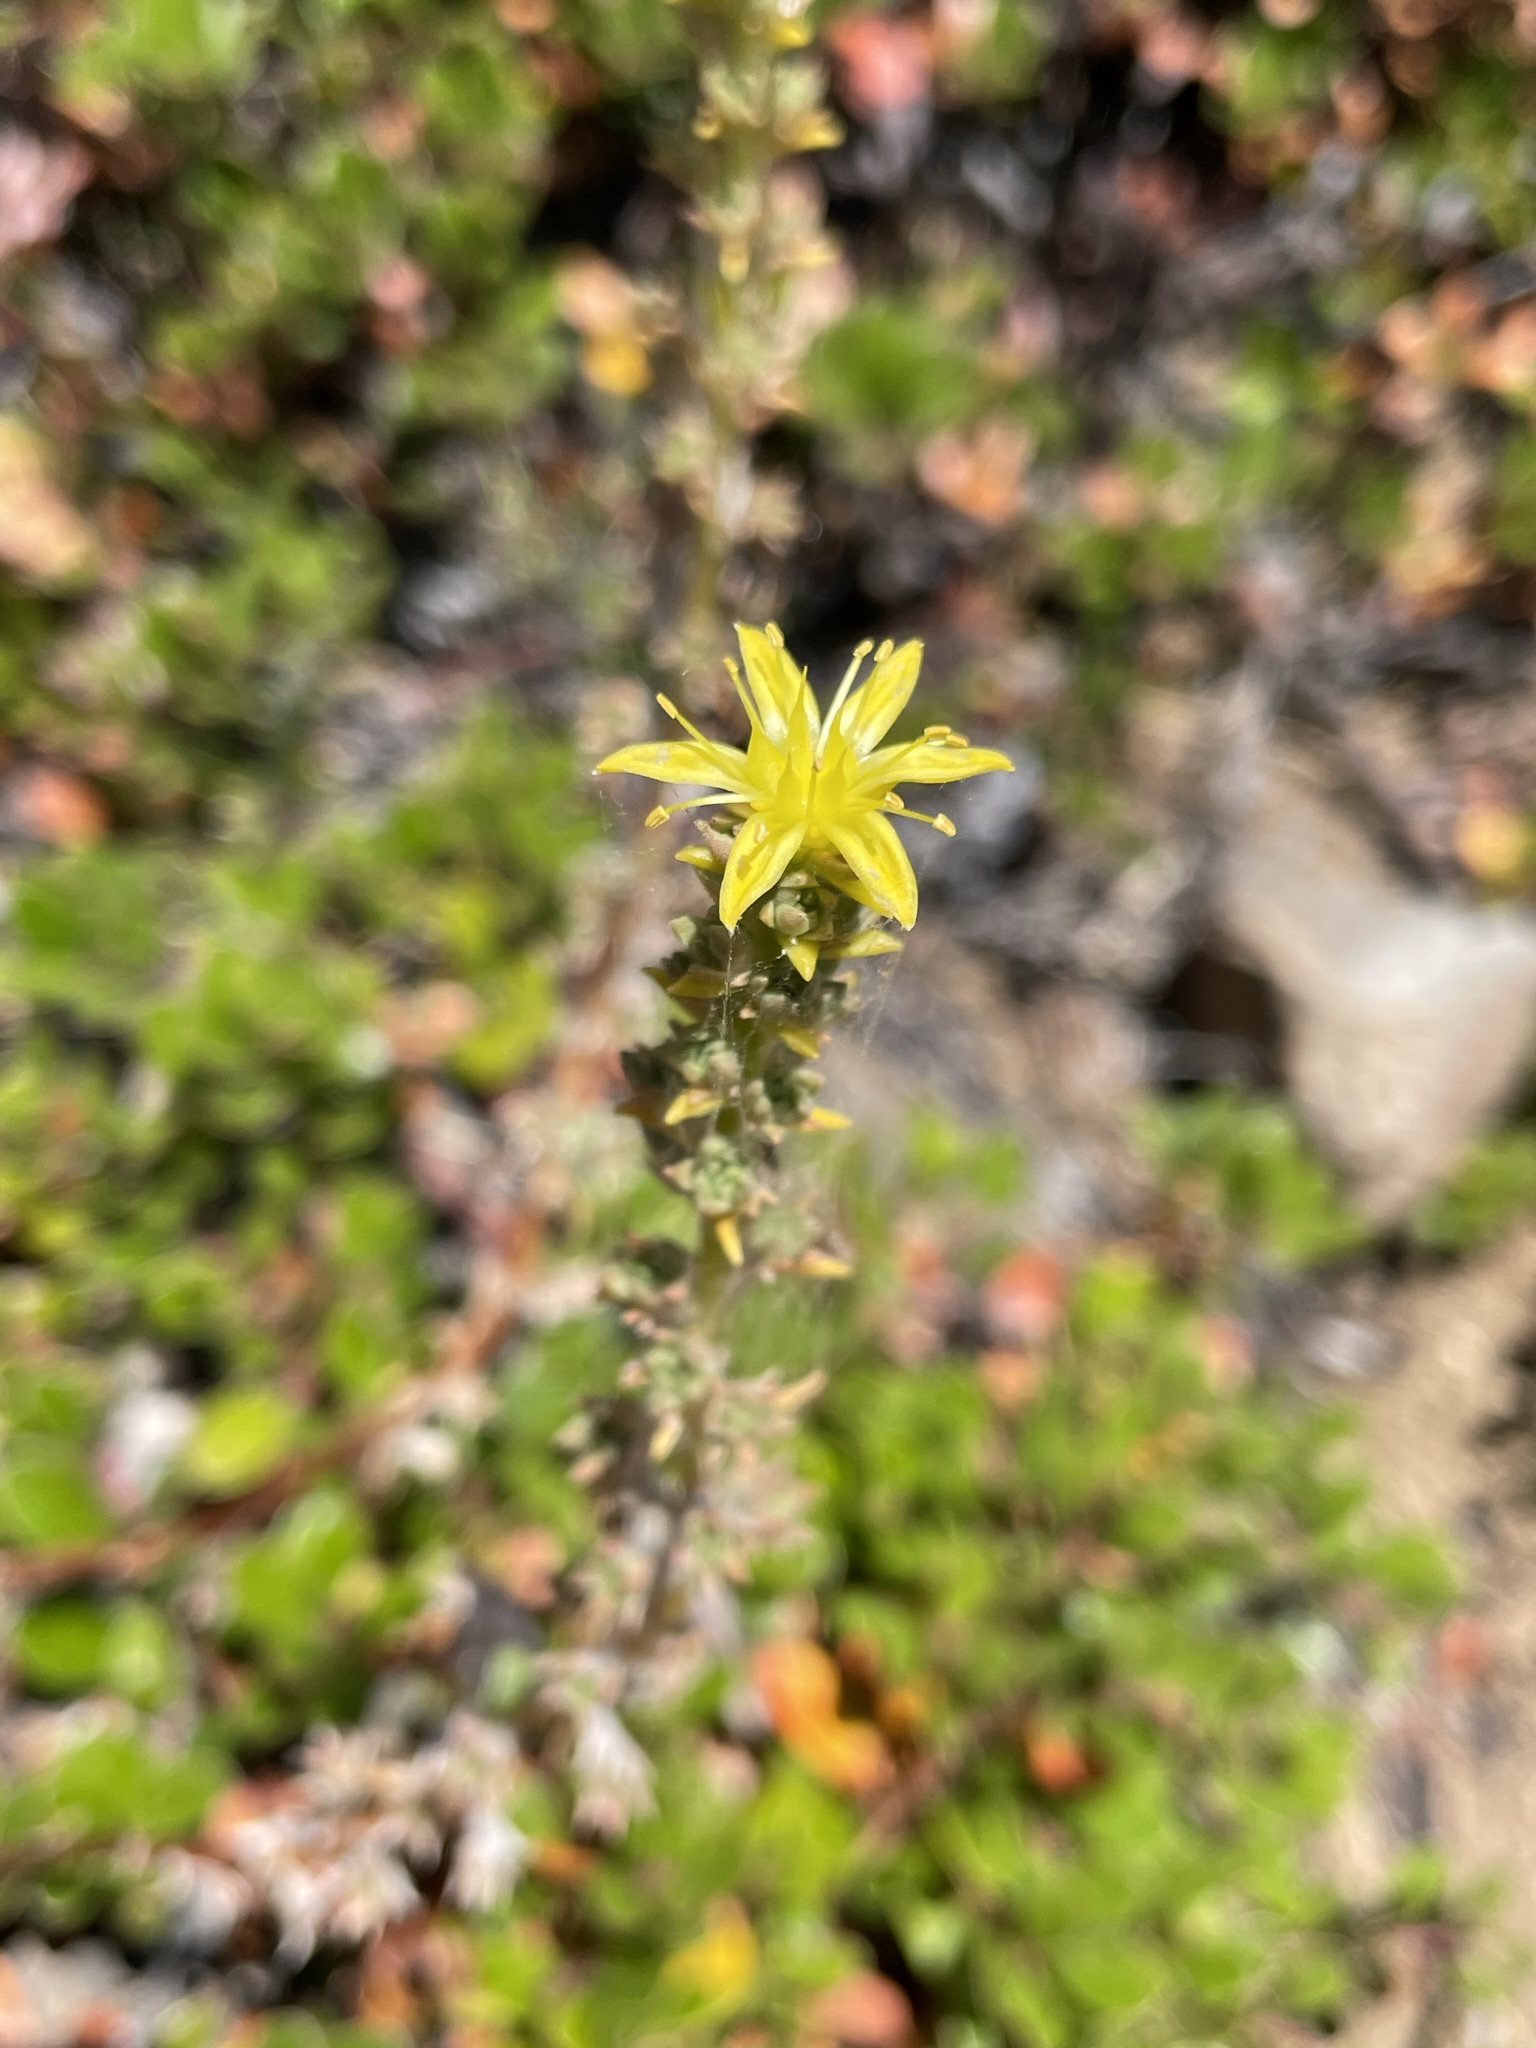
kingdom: Plantae
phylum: Tracheophyta
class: Magnoliopsida
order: Saxifragales
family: Crassulaceae
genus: Sedum
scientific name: Sedum stenopetalum
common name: Narrow-petaled stonecrop
